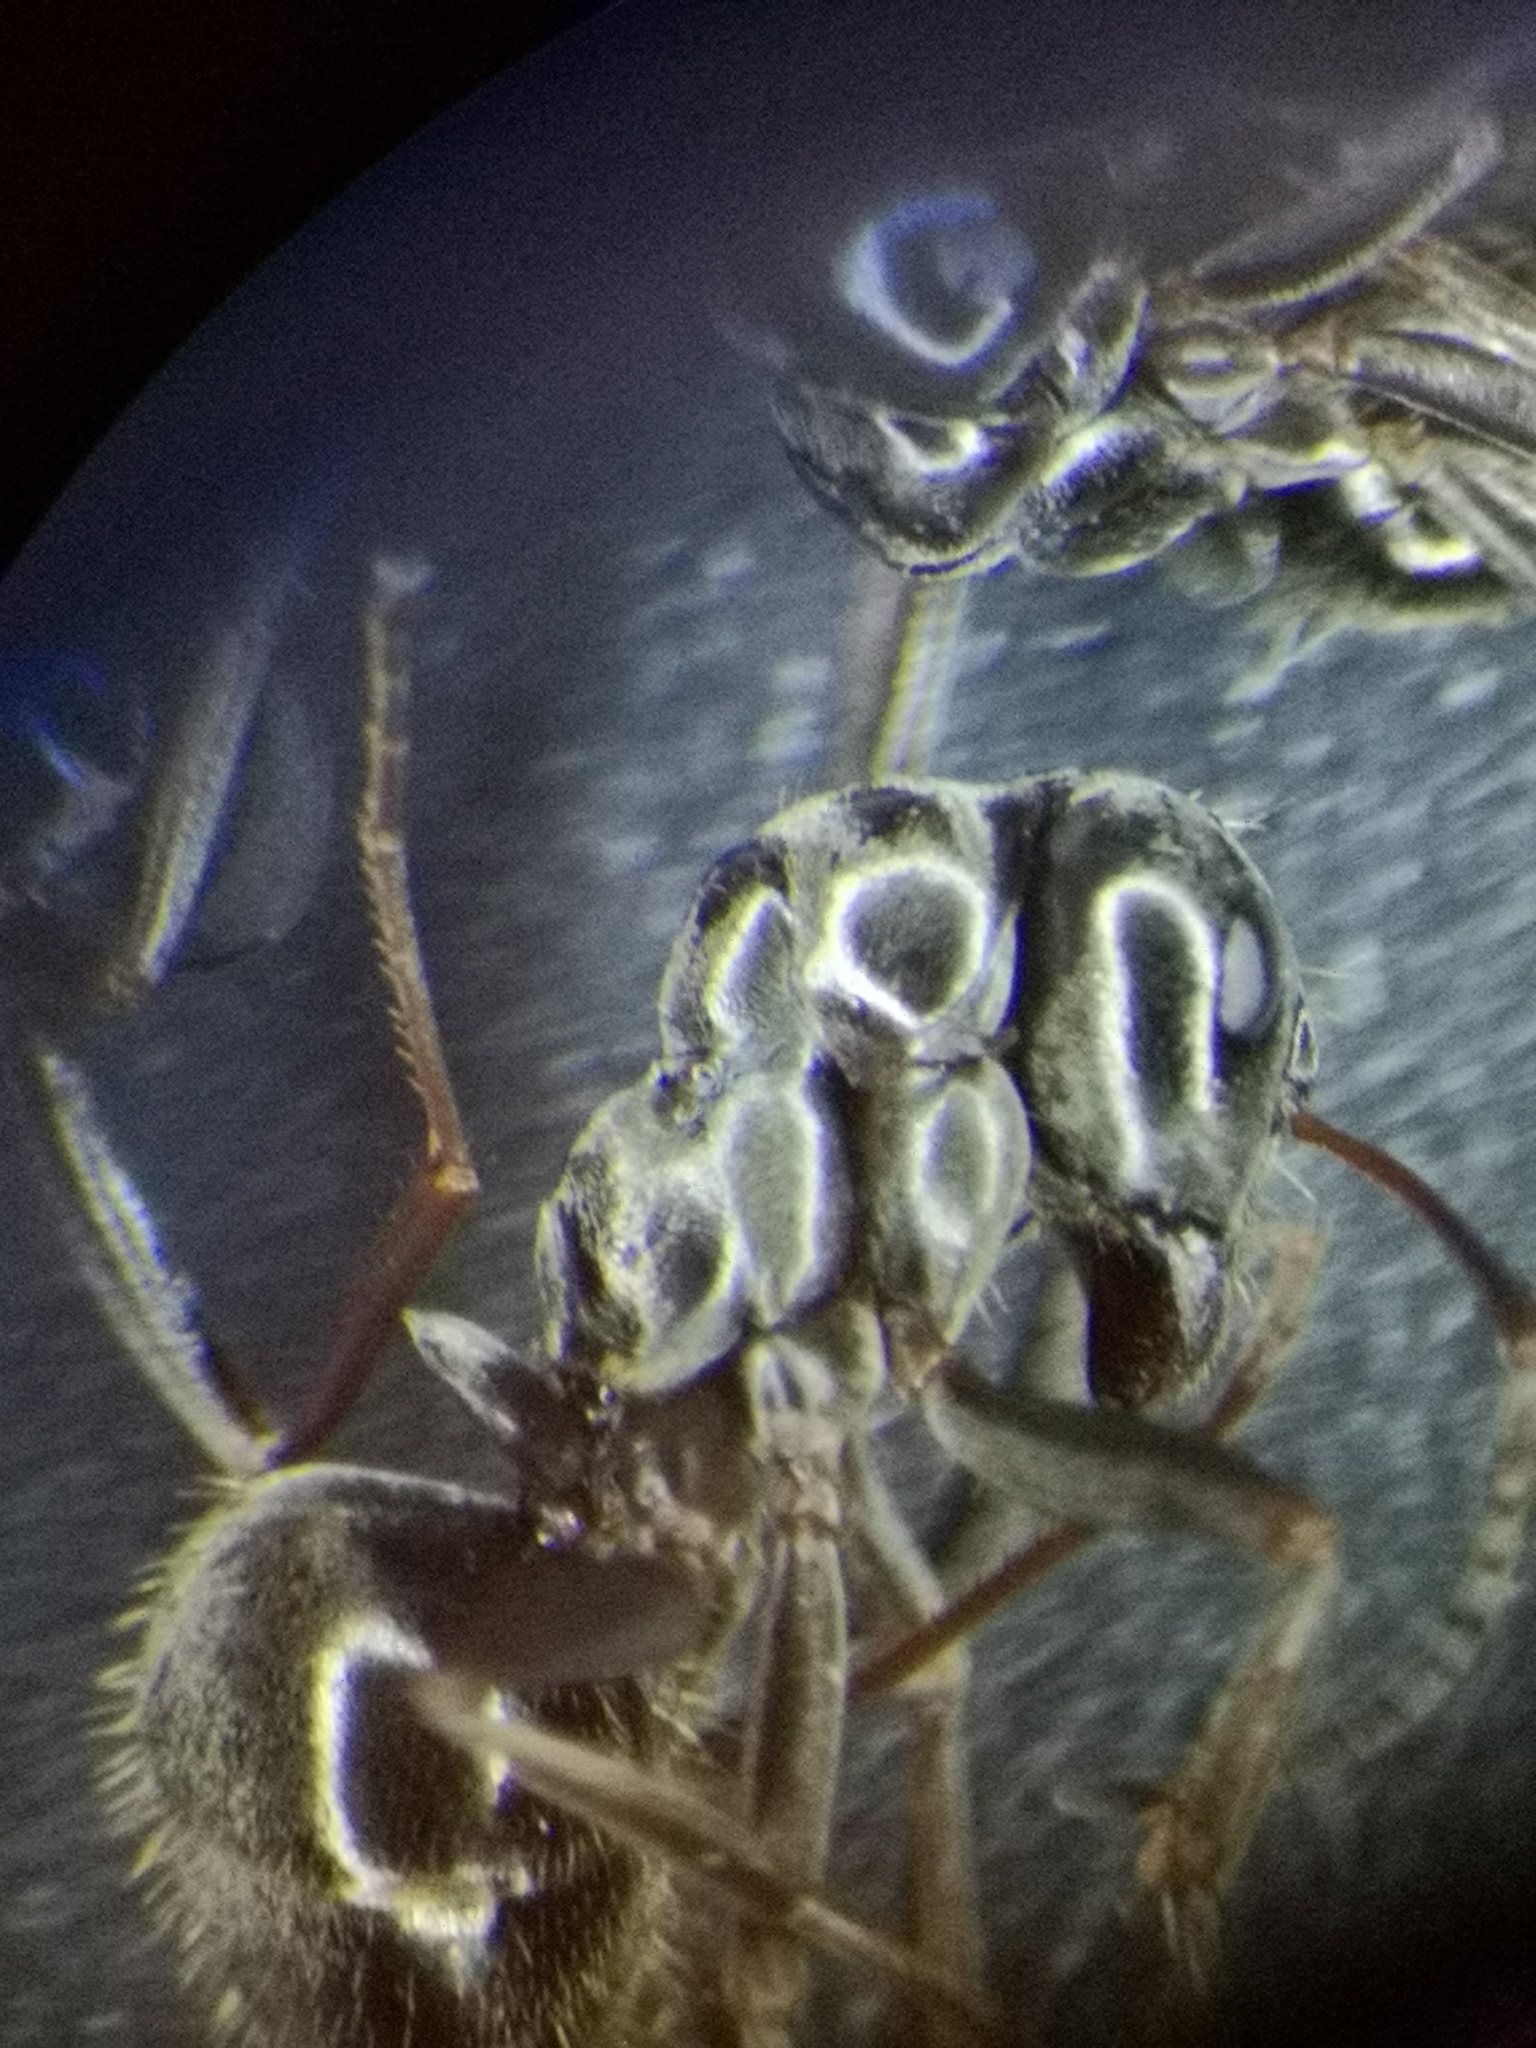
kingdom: Animalia
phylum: Arthropoda
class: Insecta
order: Hymenoptera
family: Formicidae
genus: Formica
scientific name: Formica gagates
